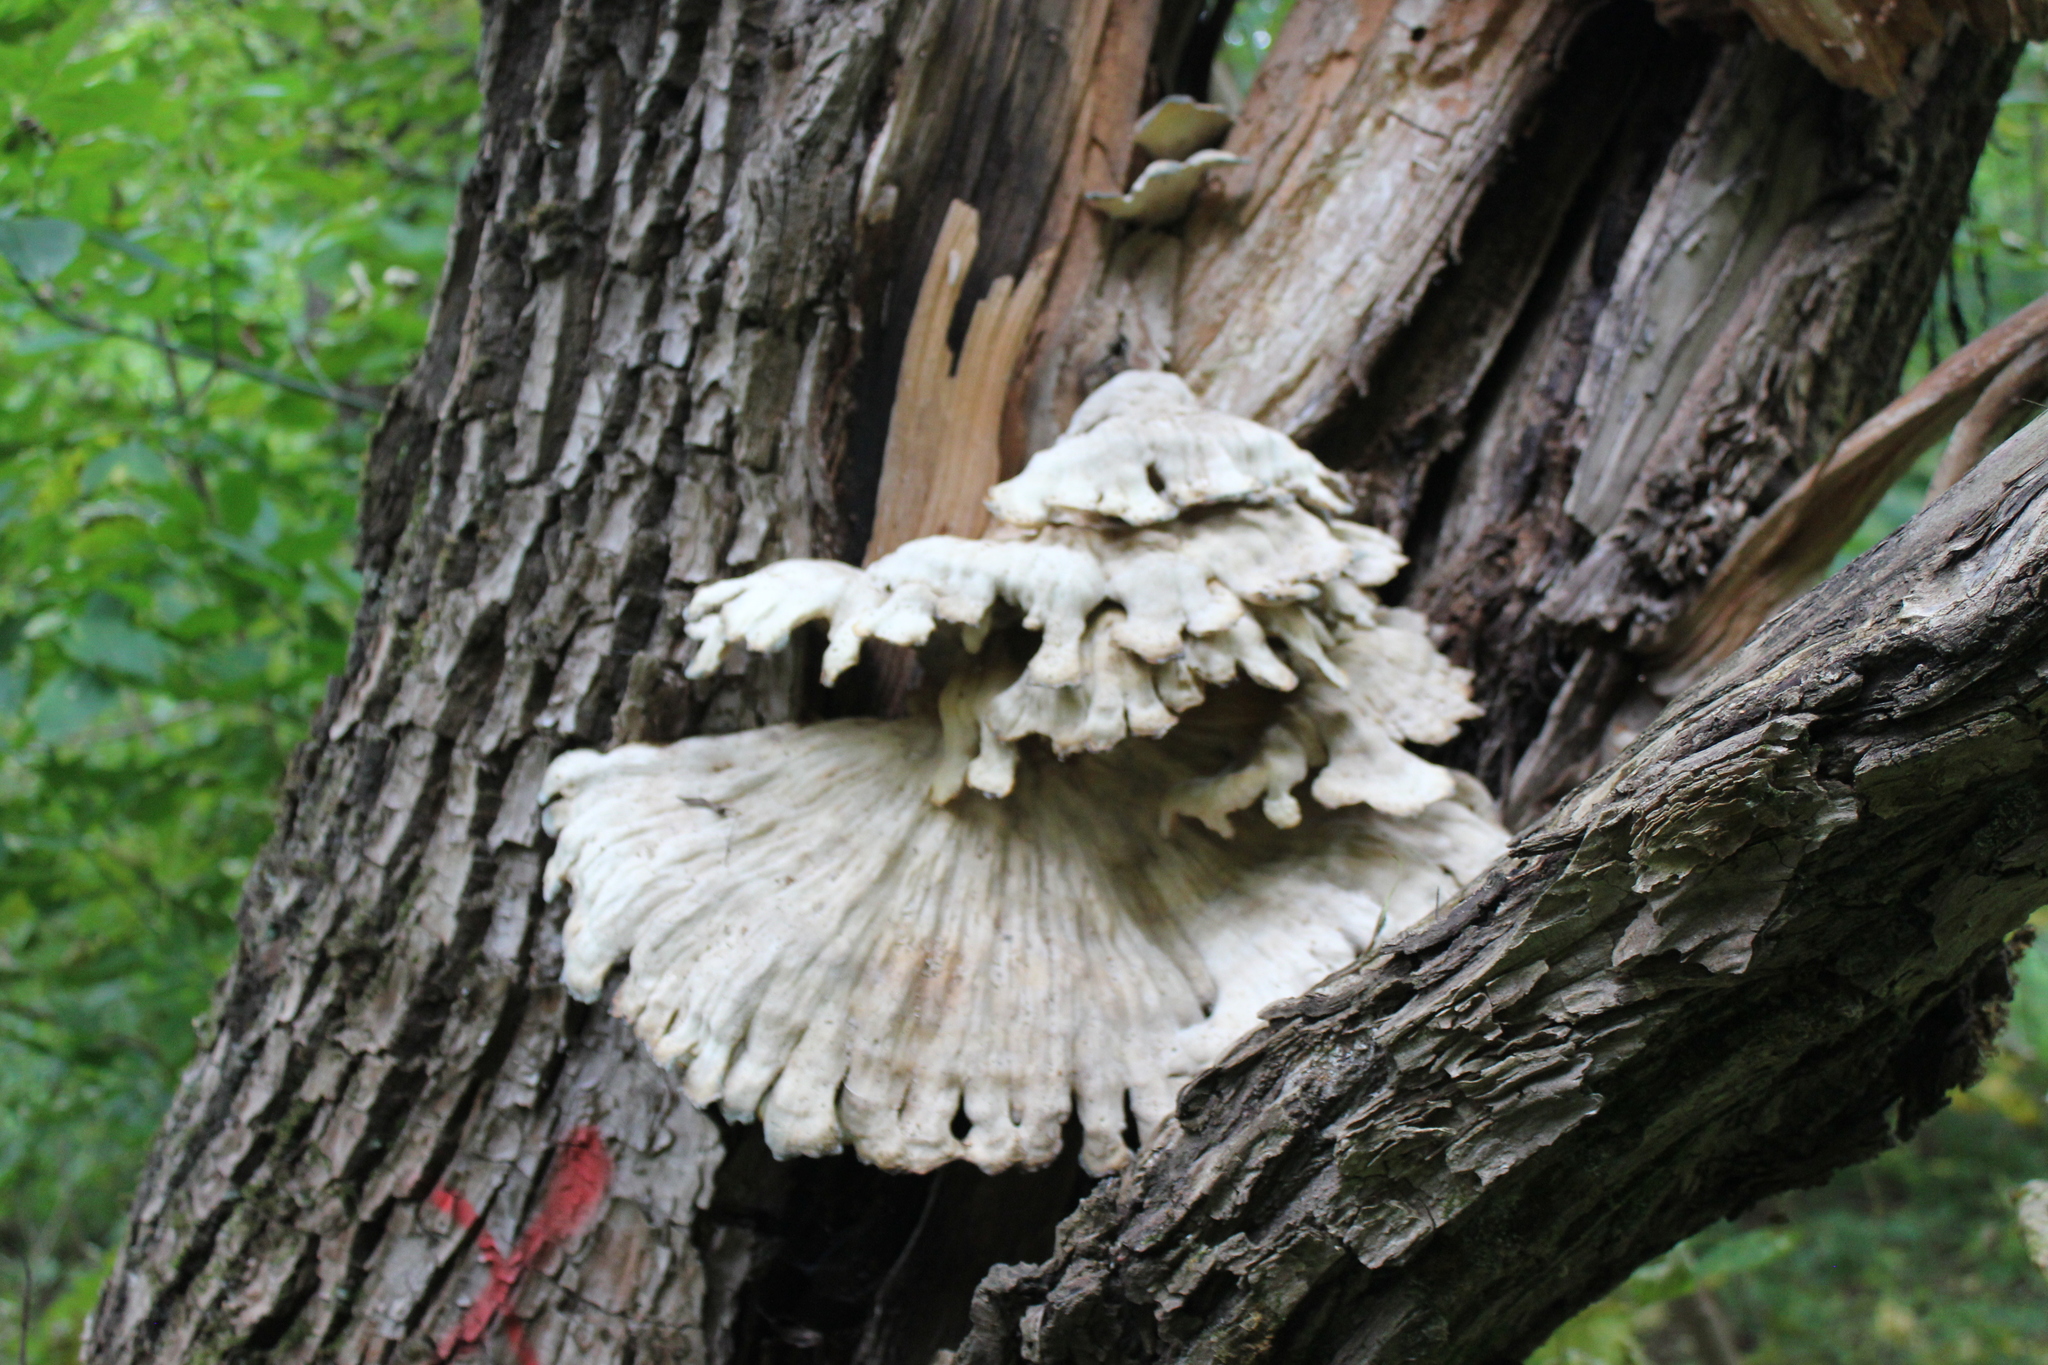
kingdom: Fungi
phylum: Basidiomycota
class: Agaricomycetes
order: Polyporales
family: Laetiporaceae
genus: Laetiporus
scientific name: Laetiporus
